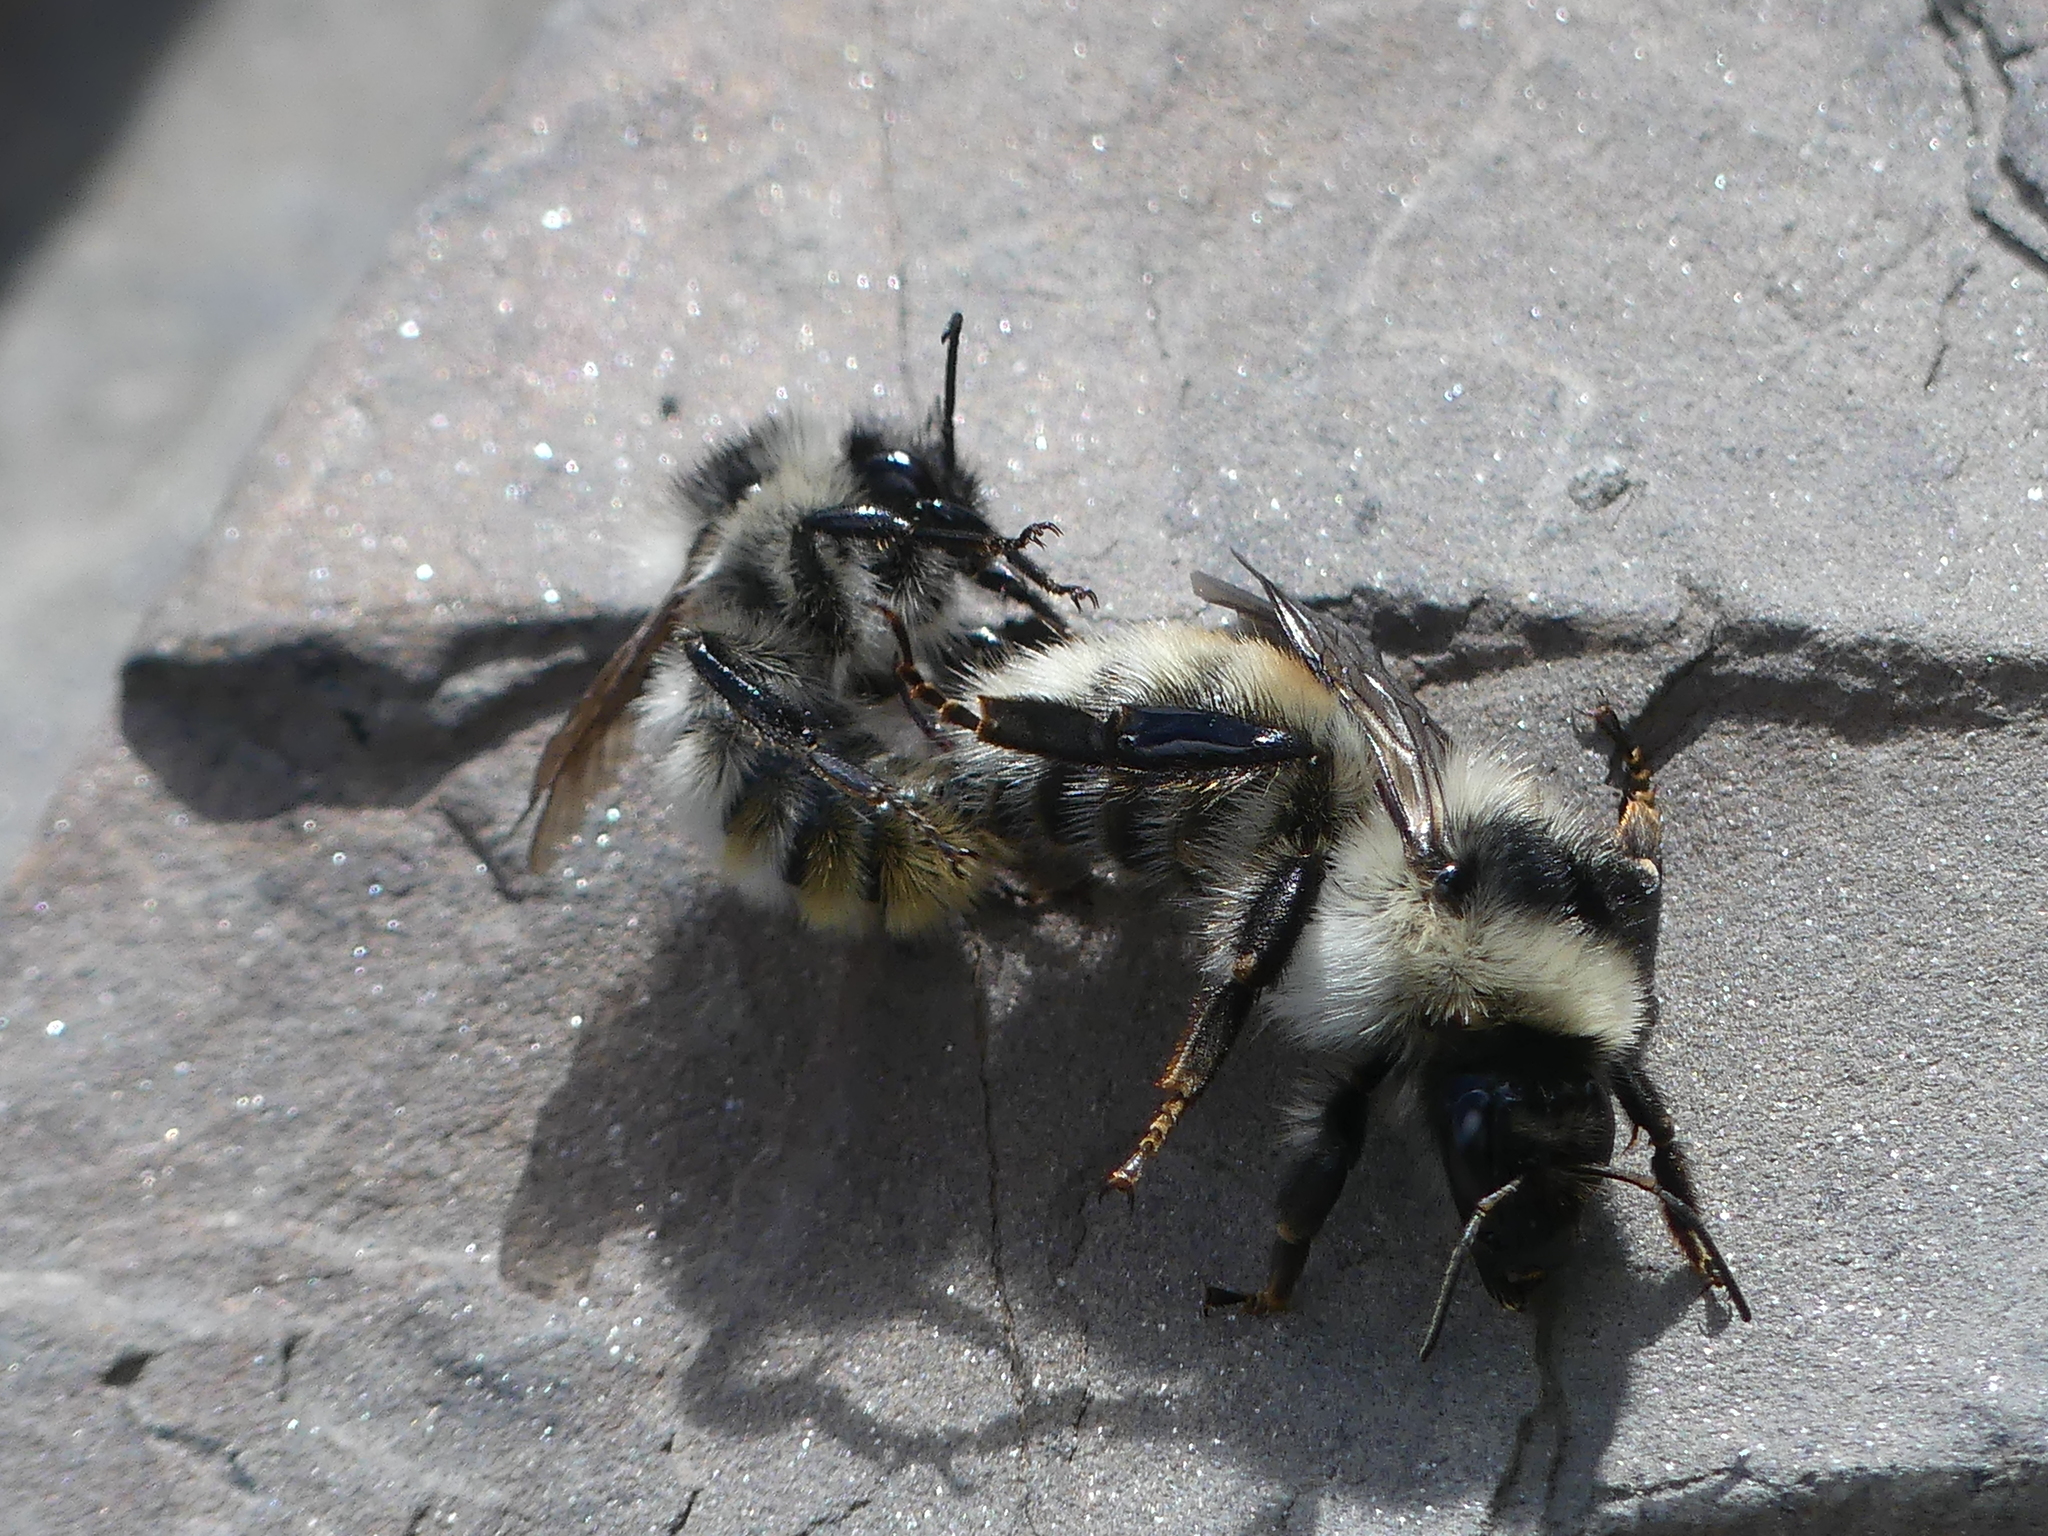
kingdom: Animalia
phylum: Arthropoda
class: Insecta
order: Hymenoptera
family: Apidae
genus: Bombus
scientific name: Bombus mesomelas
